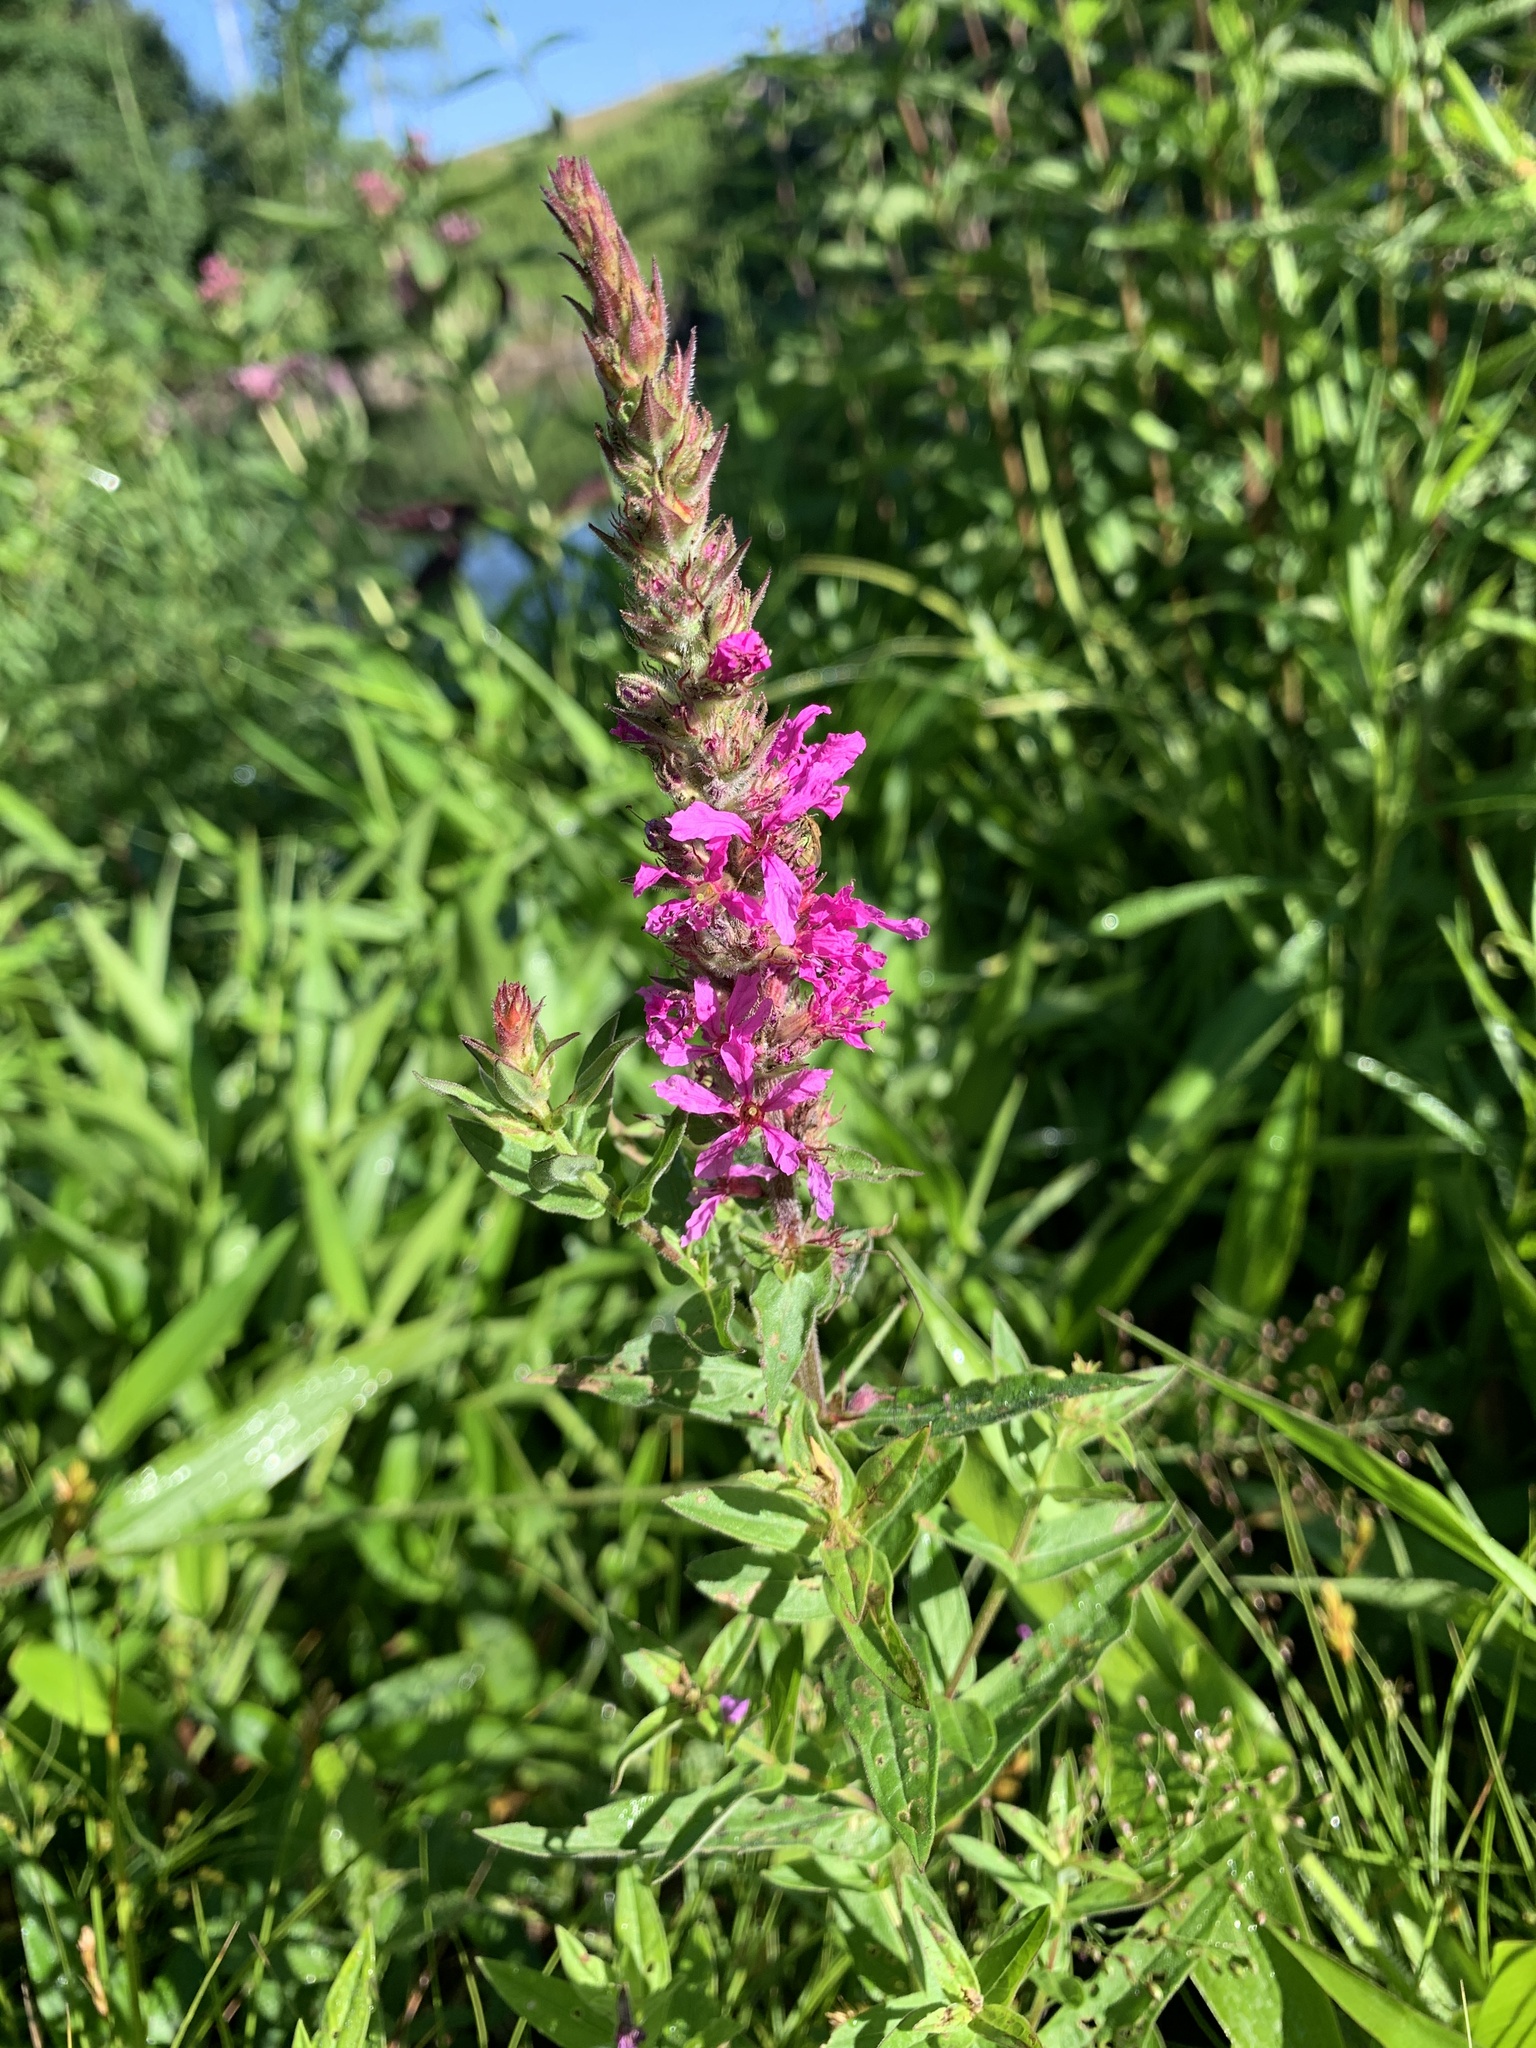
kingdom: Plantae
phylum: Tracheophyta
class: Magnoliopsida
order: Myrtales
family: Lythraceae
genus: Lythrum
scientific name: Lythrum salicaria
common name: Purple loosestrife
